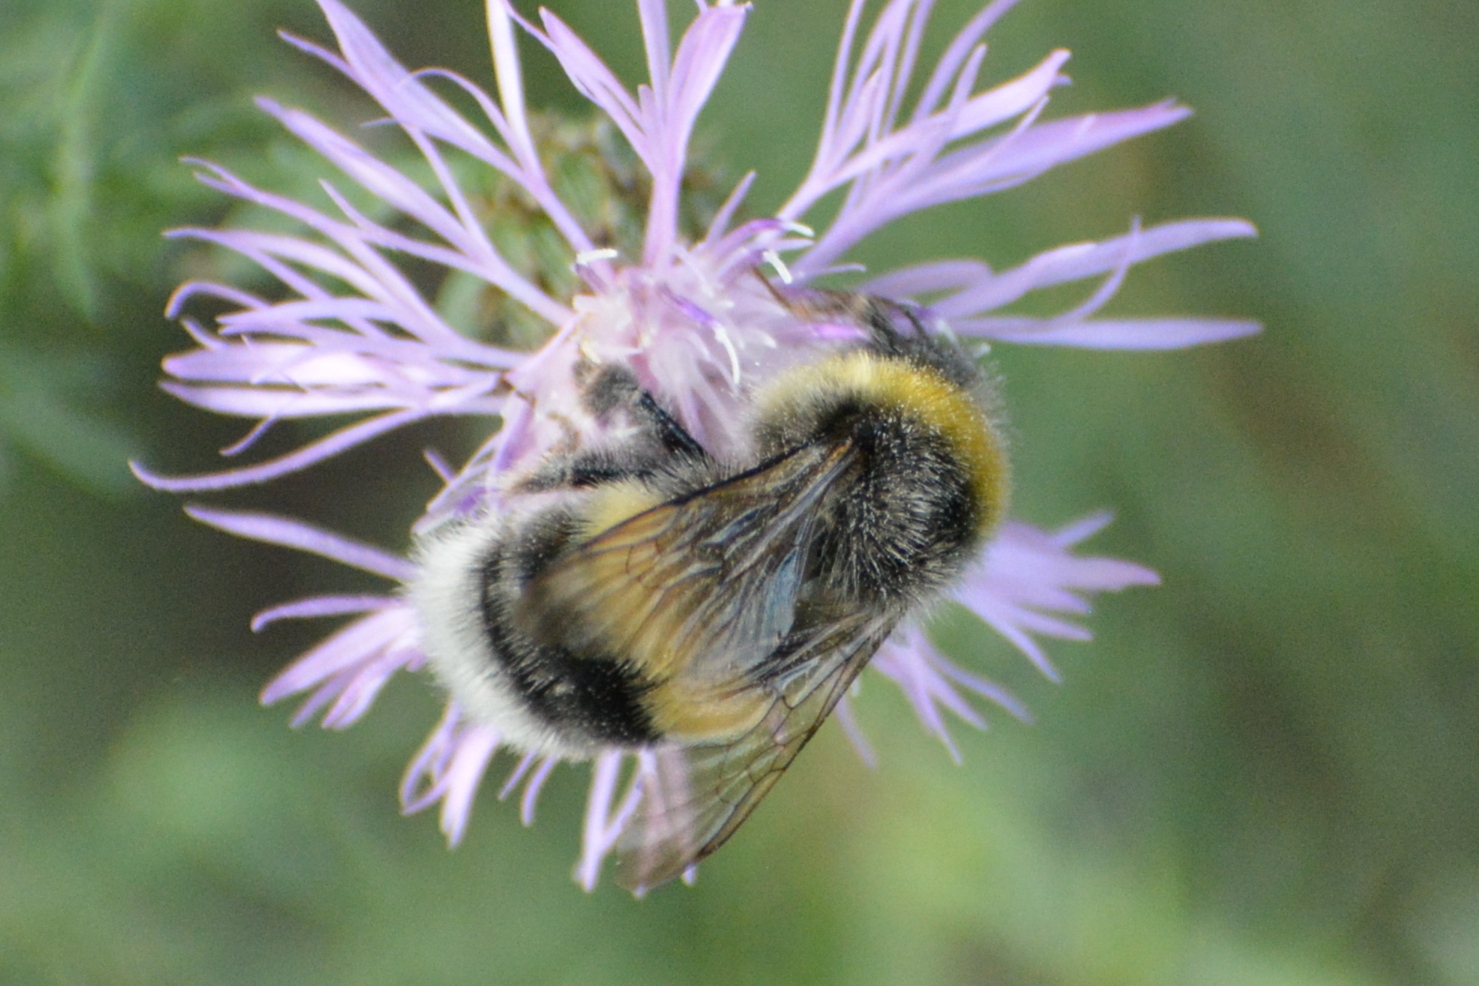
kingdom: Animalia
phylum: Arthropoda
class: Insecta
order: Hymenoptera
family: Apidae
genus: Bombus
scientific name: Bombus lucorum
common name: White-tailed bumblebee
